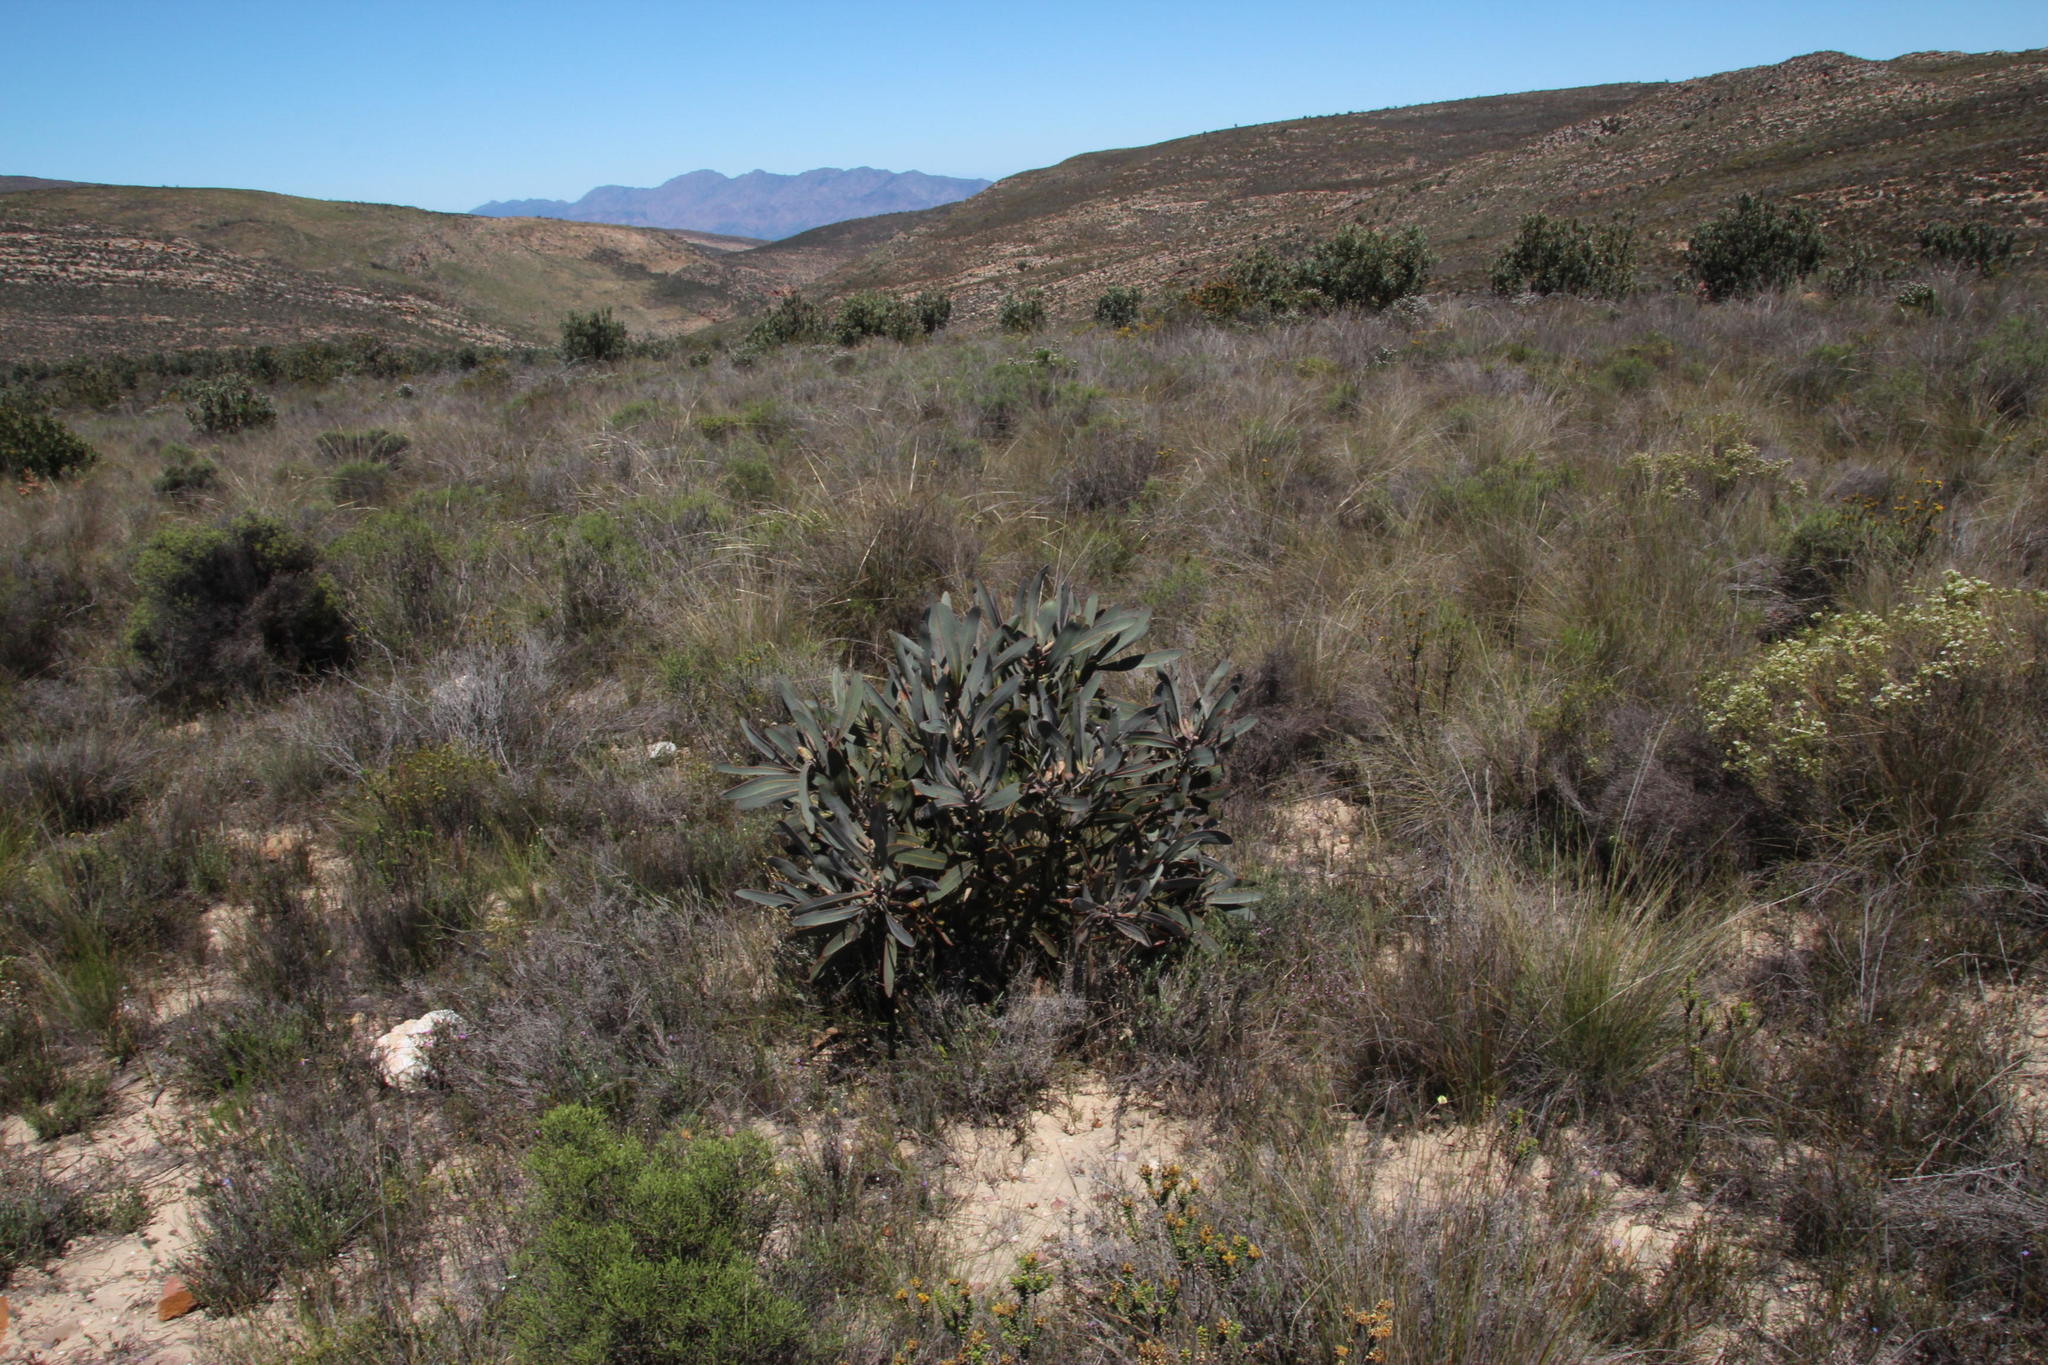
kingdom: Plantae
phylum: Tracheophyta
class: Magnoliopsida
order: Proteales
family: Proteaceae
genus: Protea
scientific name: Protea lorifolia
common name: Strap-leaved protea
